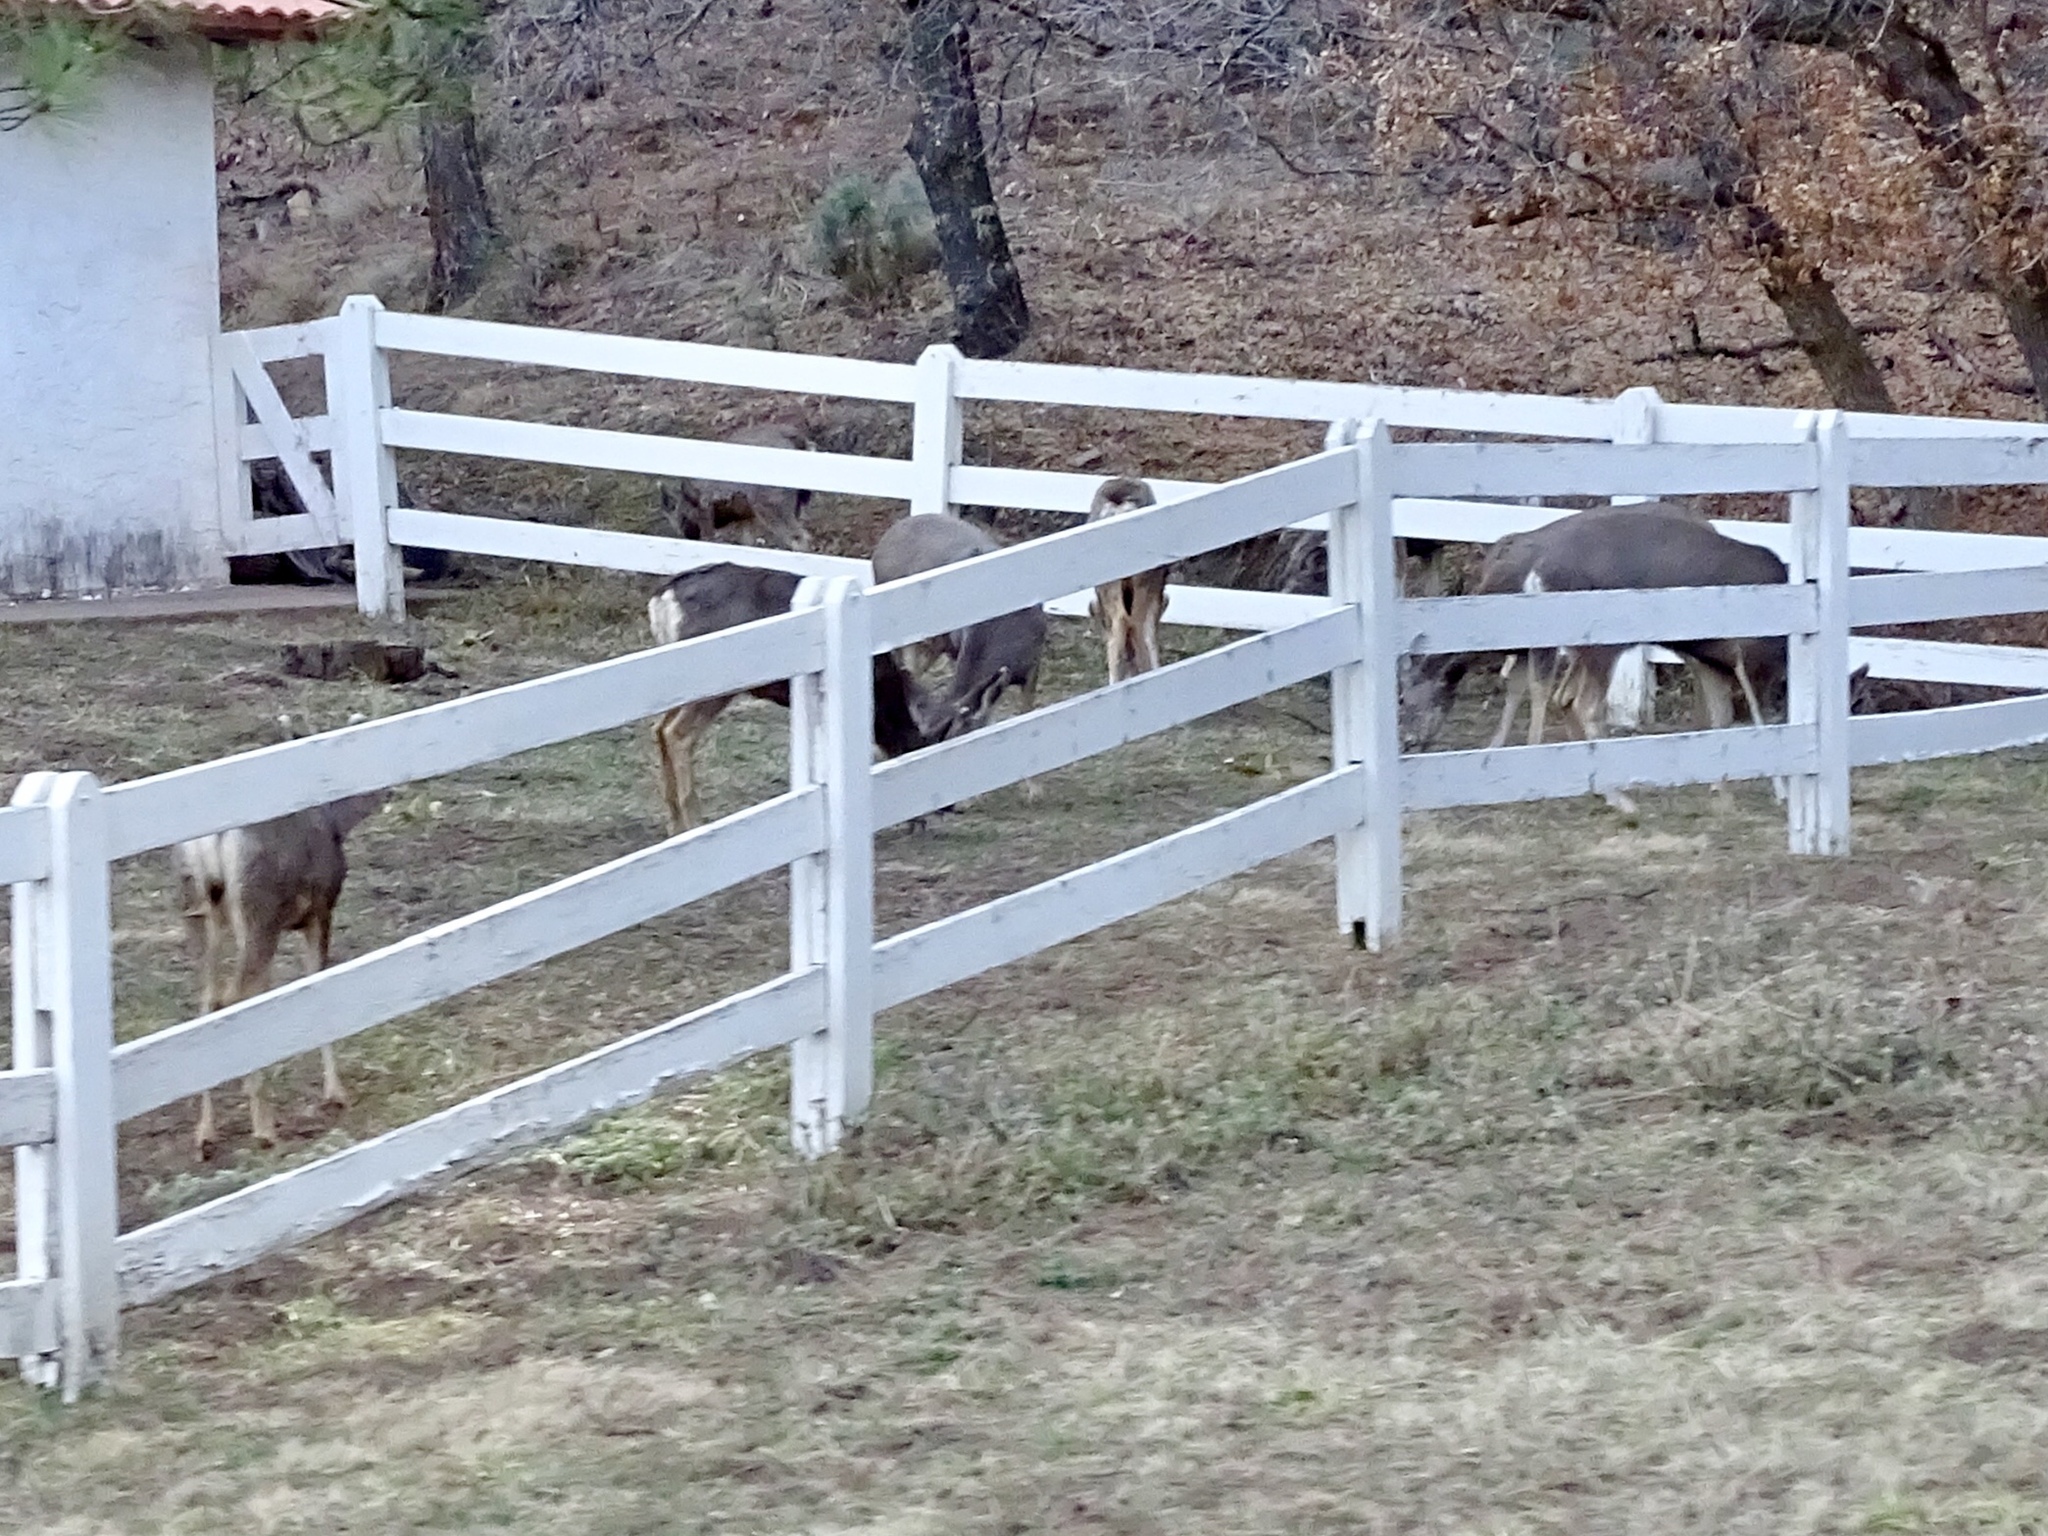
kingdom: Animalia
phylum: Chordata
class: Mammalia
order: Artiodactyla
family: Cervidae
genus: Odocoileus
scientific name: Odocoileus hemionus
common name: Mule deer
